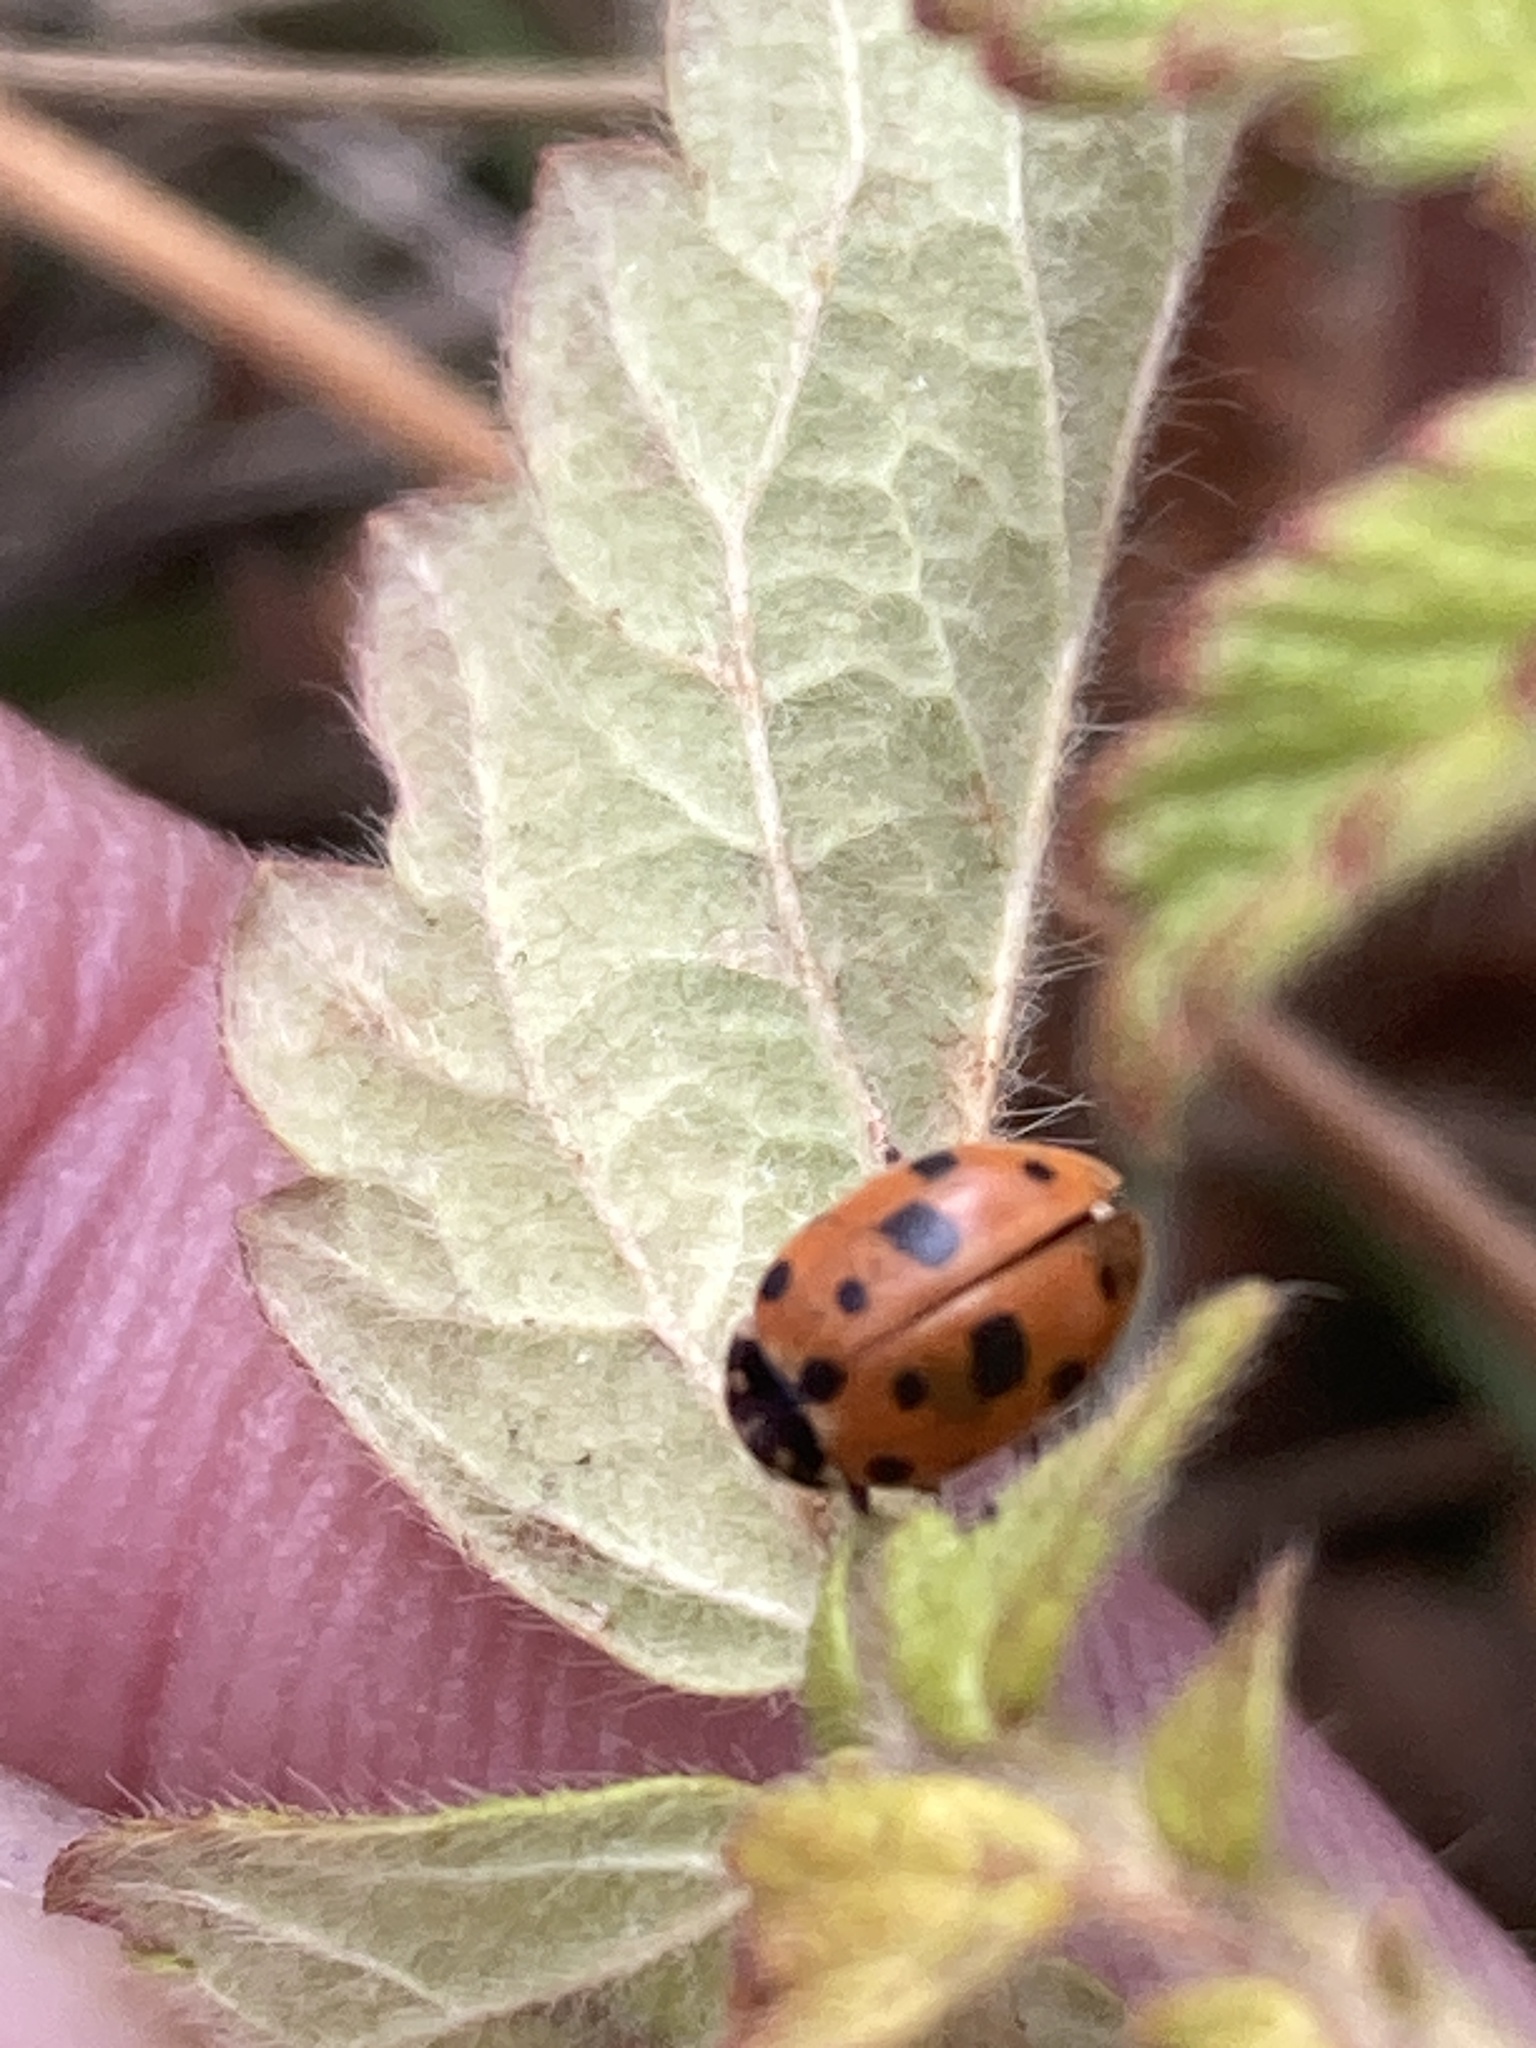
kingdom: Animalia
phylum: Arthropoda
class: Insecta
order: Coleoptera
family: Coccinellidae
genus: Hippodamia
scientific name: Hippodamia variegata
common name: Ladybird beetle
